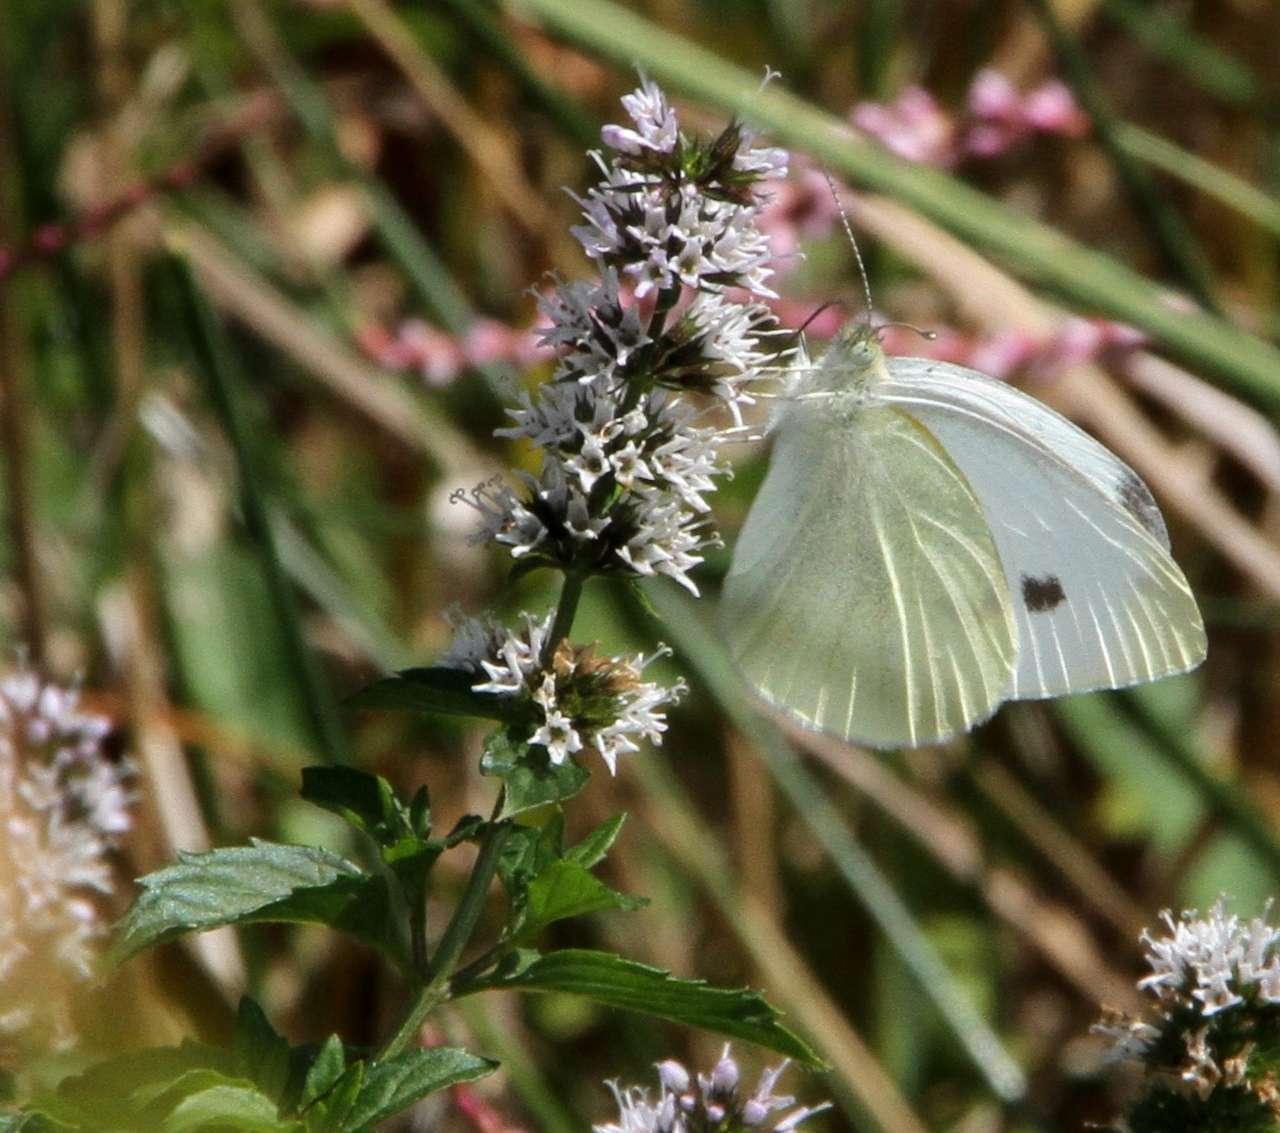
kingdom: Animalia
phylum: Arthropoda
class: Insecta
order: Lepidoptera
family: Pieridae
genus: Pieris
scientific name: Pieris rapae
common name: Small white
